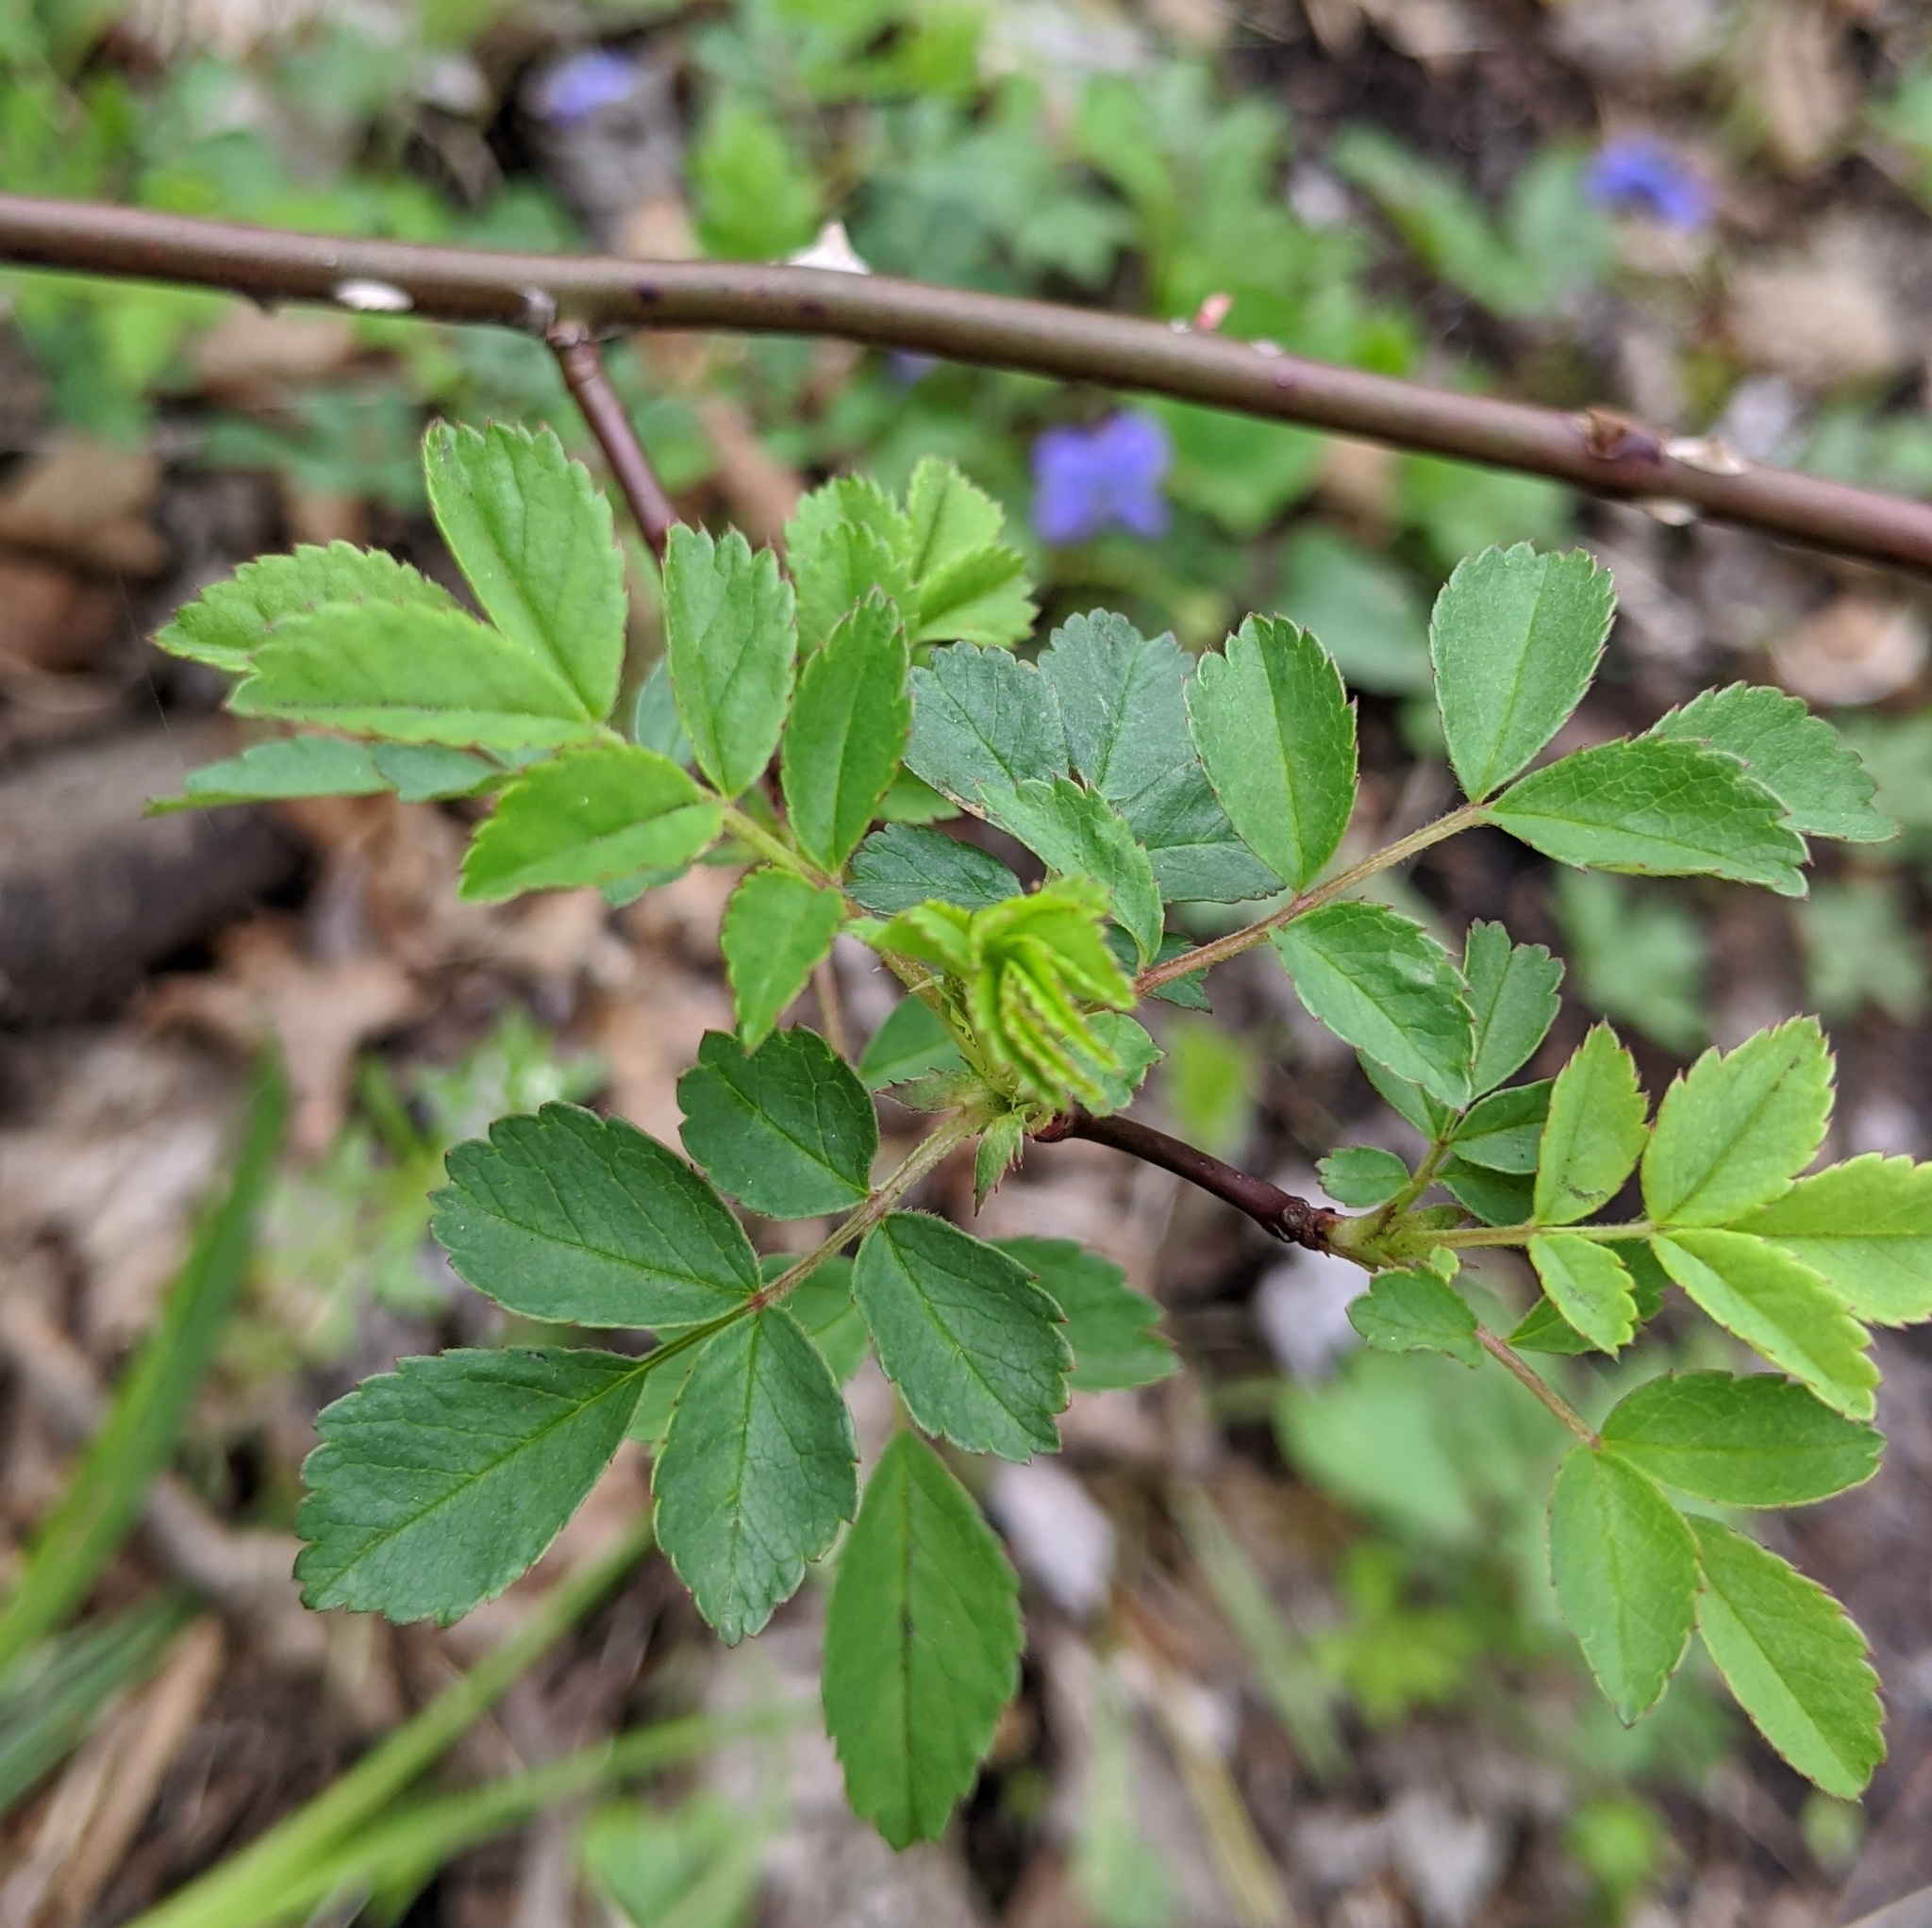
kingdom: Plantae
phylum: Tracheophyta
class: Magnoliopsida
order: Rosales
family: Rosaceae
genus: Rosa
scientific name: Rosa multiflora
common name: Multiflora rose
